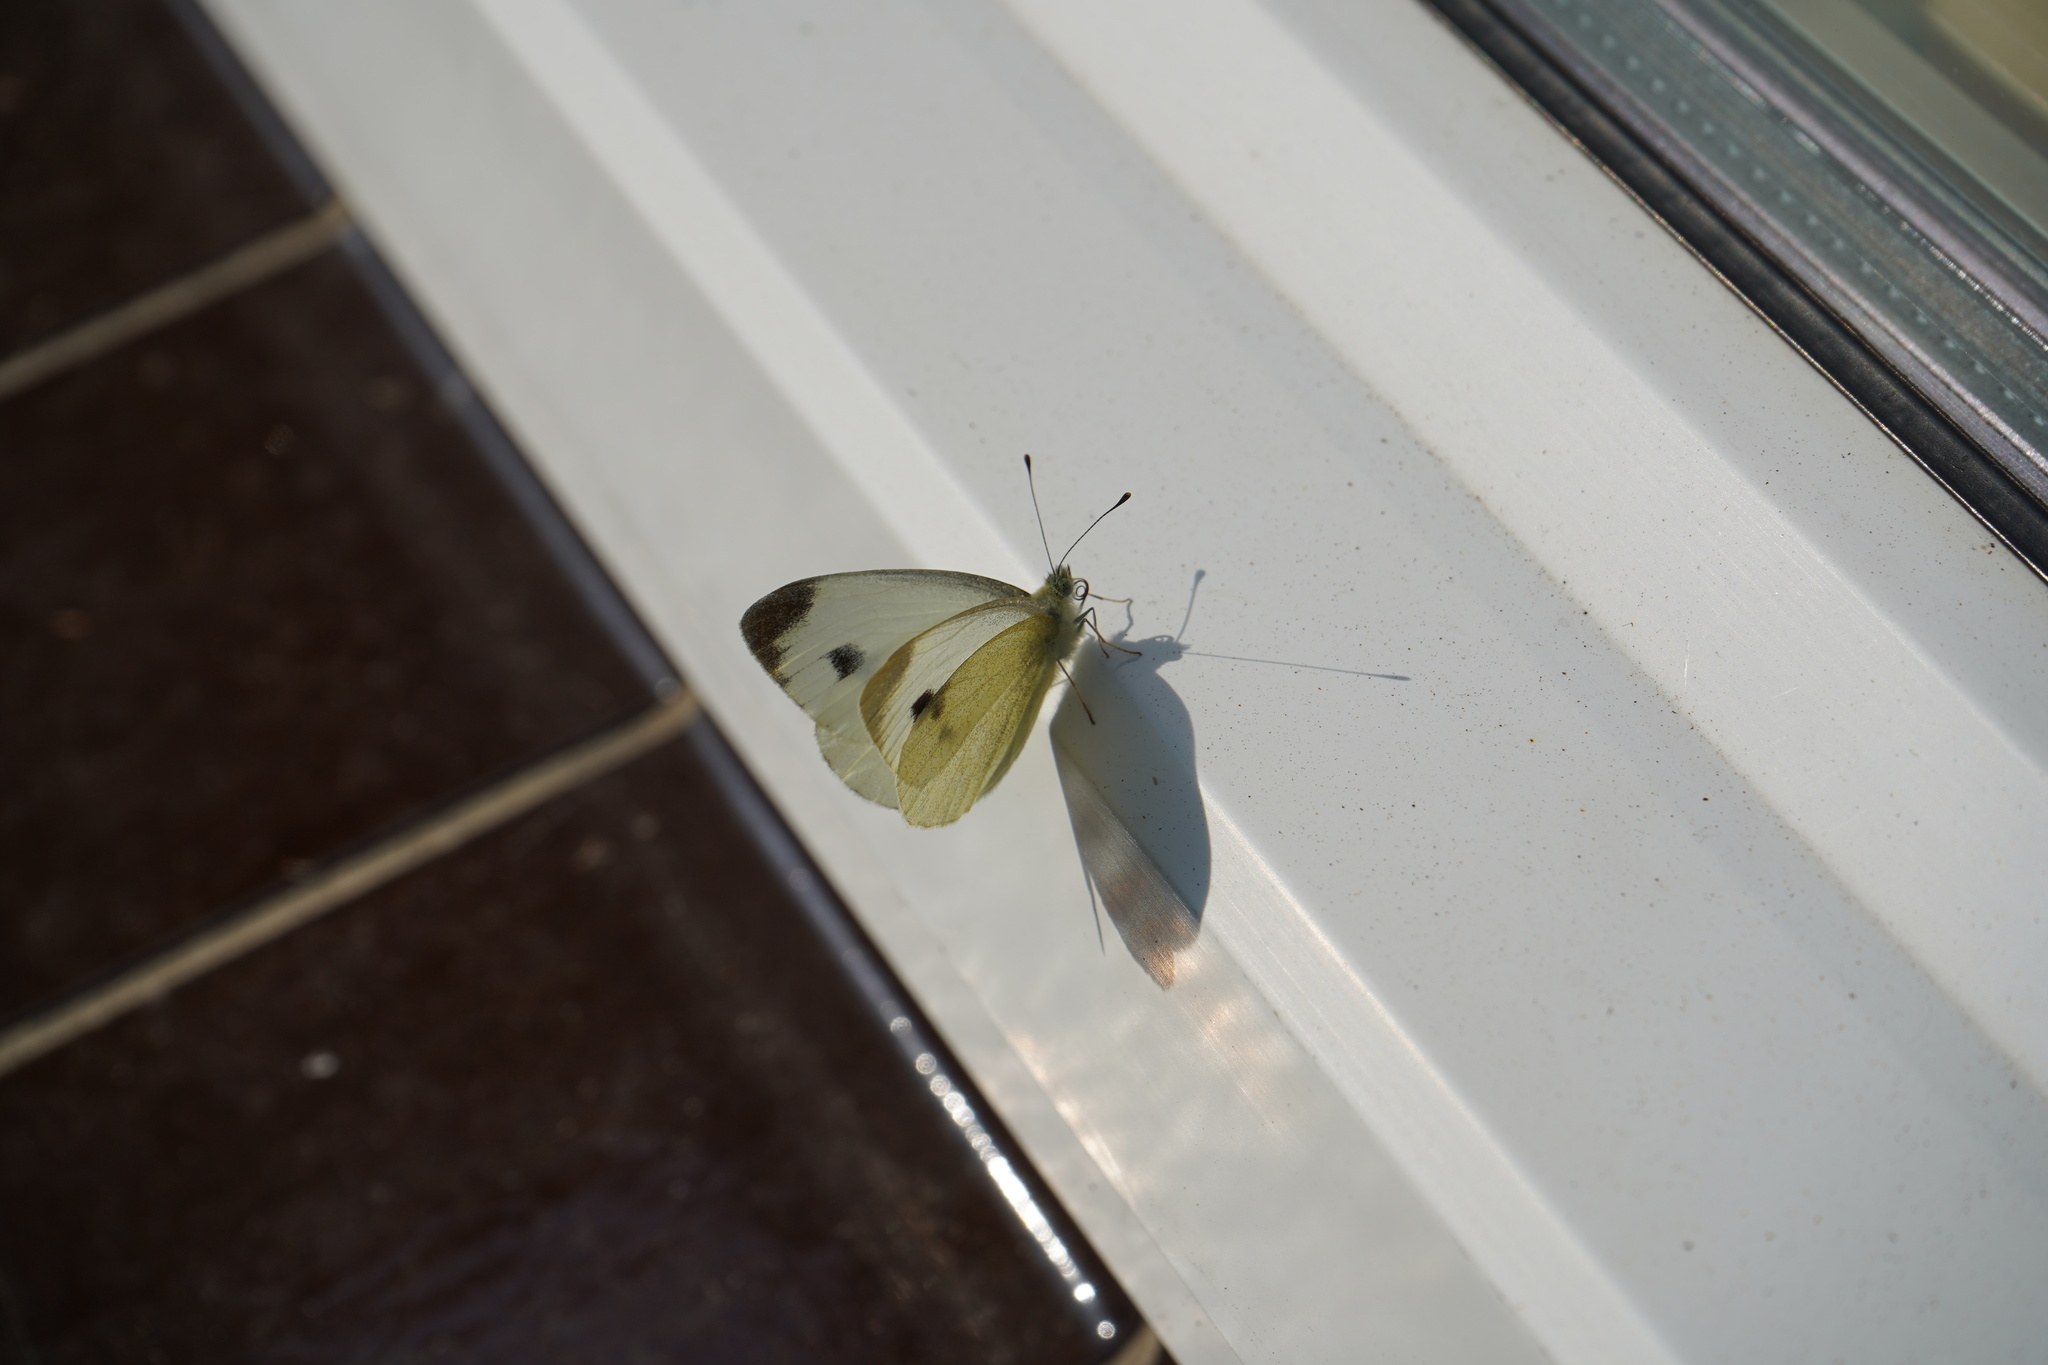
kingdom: Animalia
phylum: Arthropoda
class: Insecta
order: Lepidoptera
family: Pieridae
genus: Pieris
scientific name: Pieris mannii
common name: Southern small white
